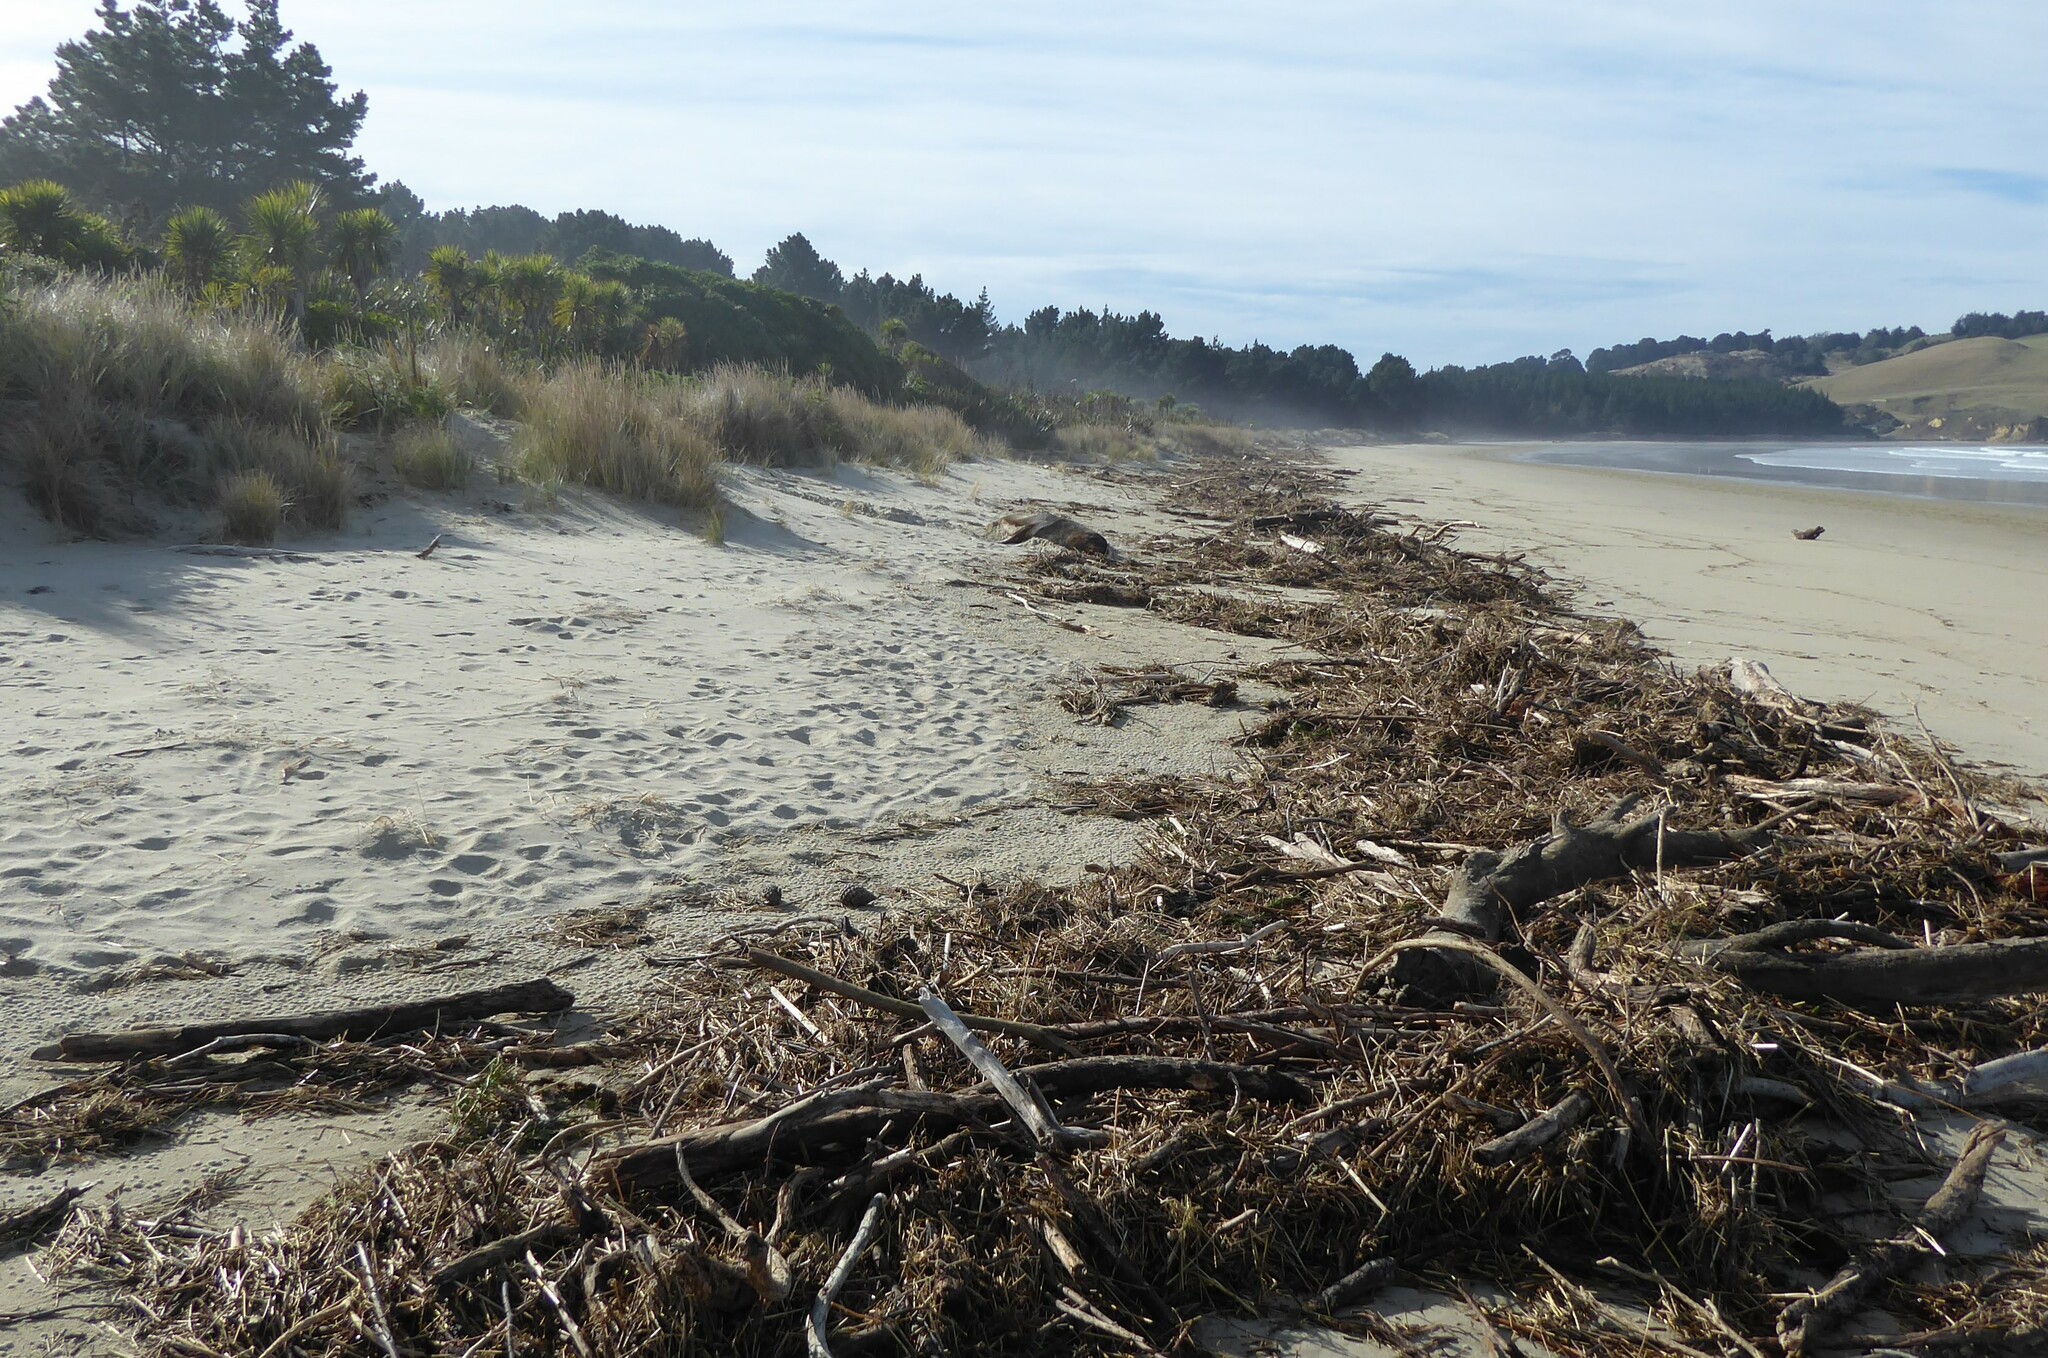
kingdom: Animalia
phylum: Chordata
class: Mammalia
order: Carnivora
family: Otariidae
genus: Phocarctos
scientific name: Phocarctos hookeri
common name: New zealand sea lion
